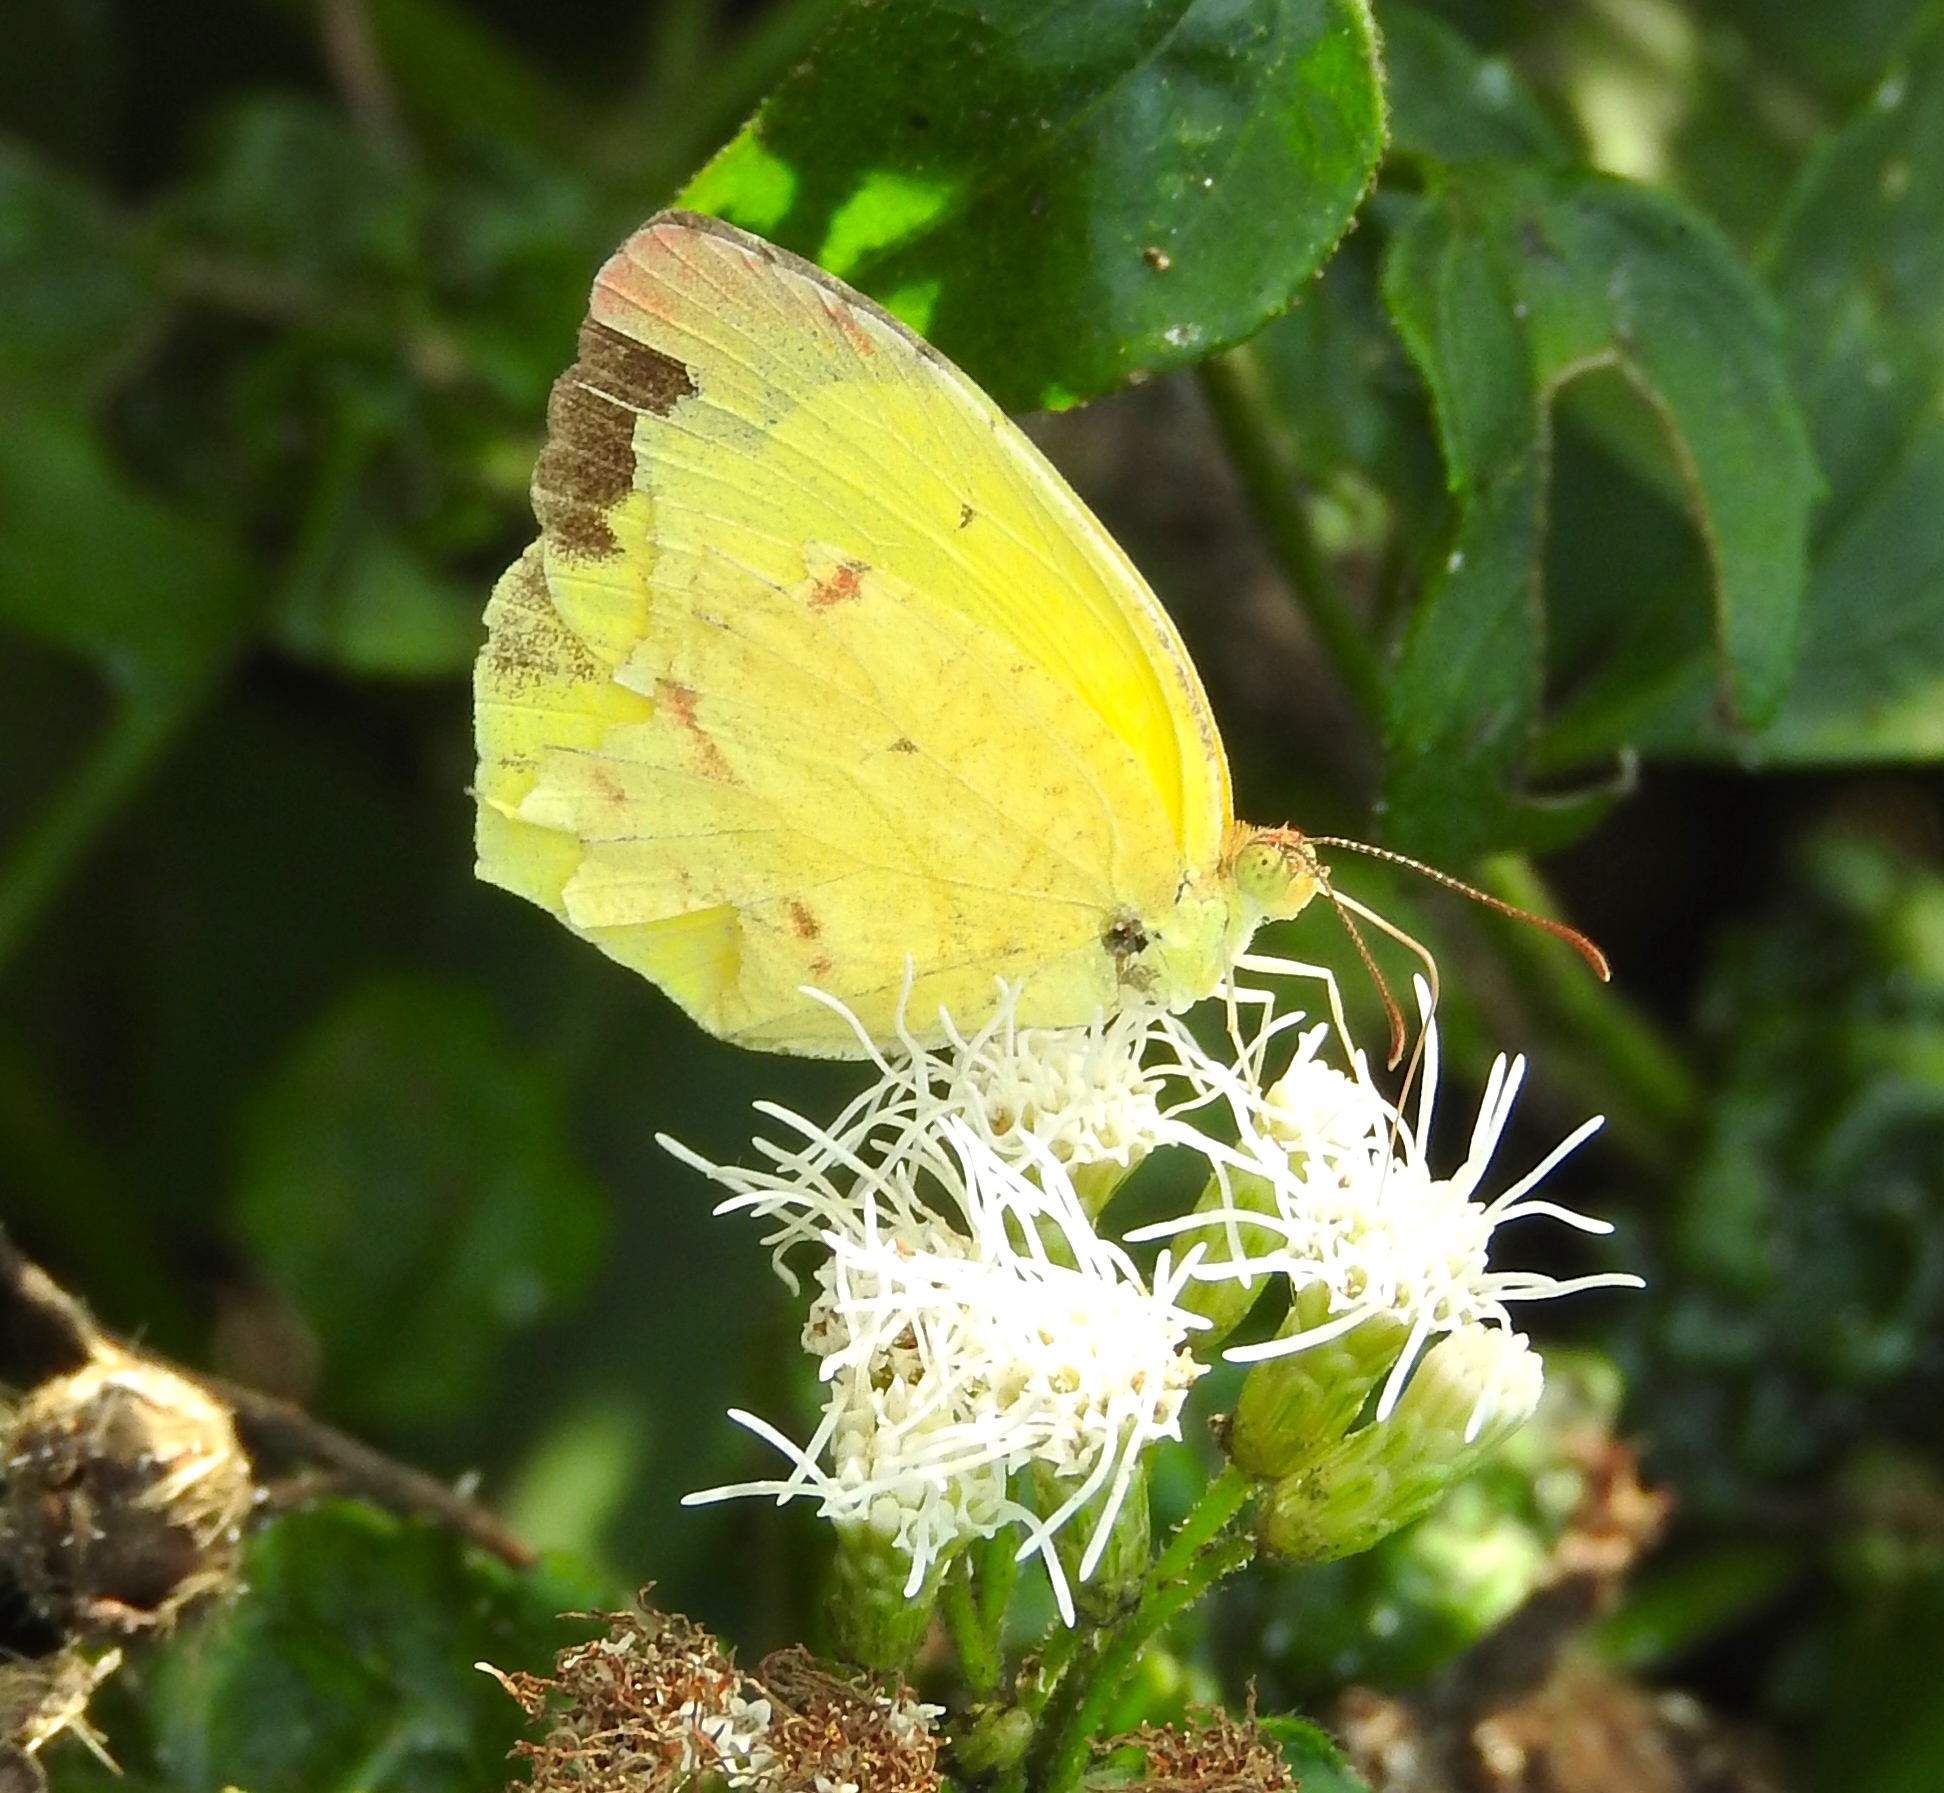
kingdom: Animalia
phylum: Arthropoda
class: Insecta
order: Lepidoptera
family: Pieridae
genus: Abaeis
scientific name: Abaeis boisduvaliana
